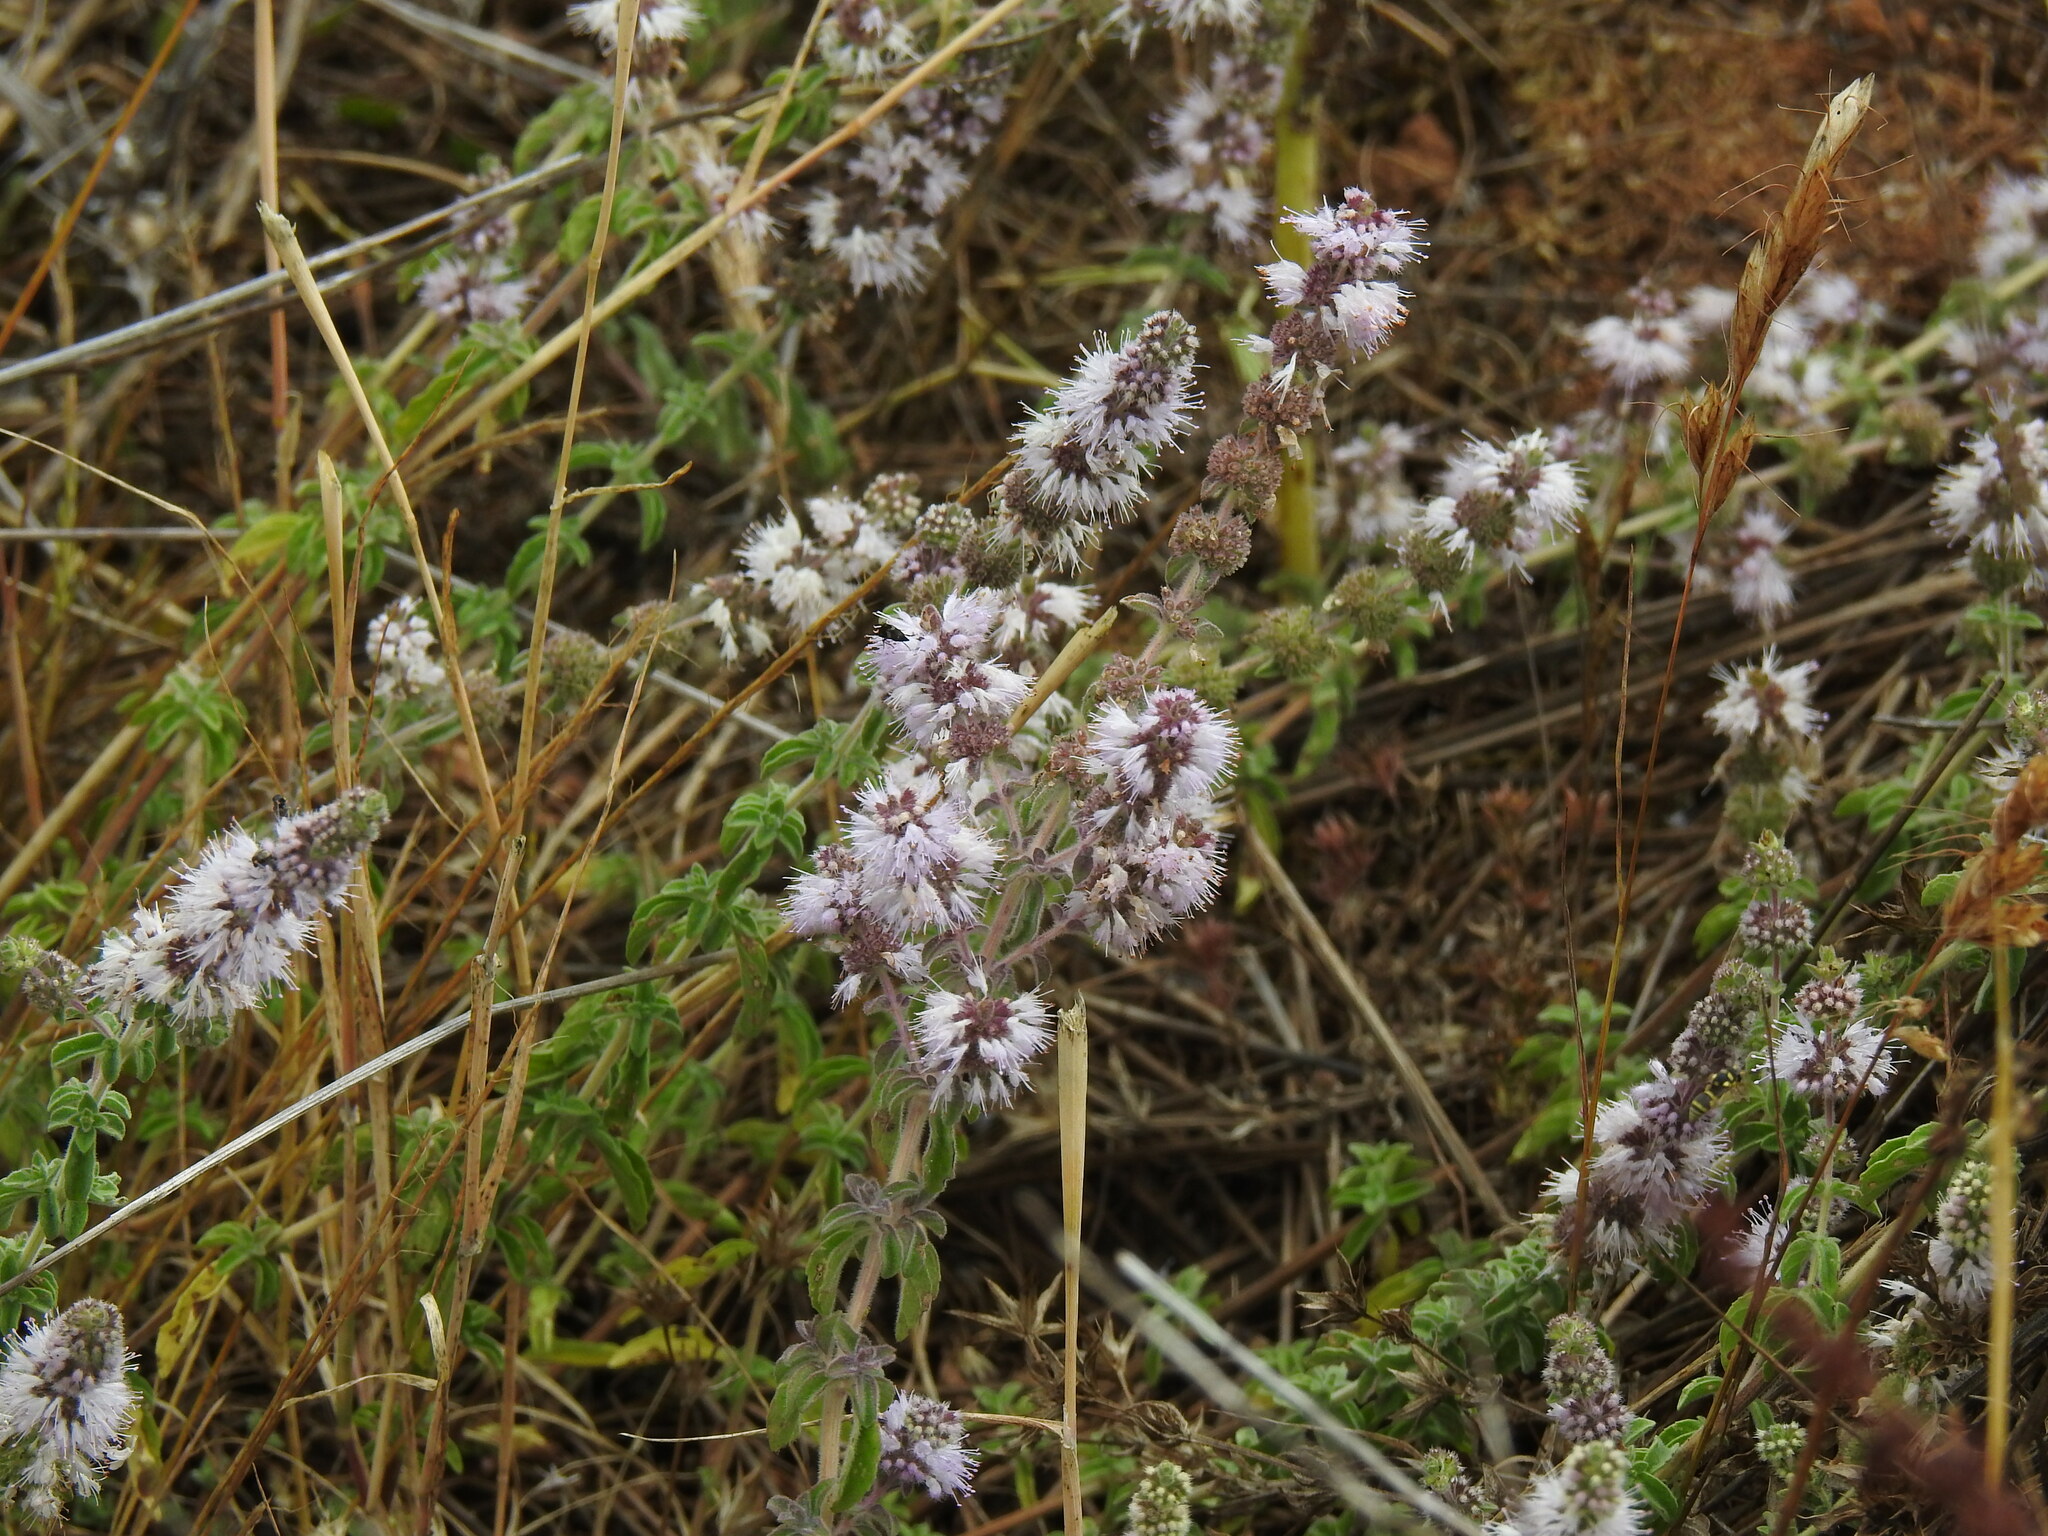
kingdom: Plantae
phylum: Tracheophyta
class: Magnoliopsida
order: Lamiales
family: Lamiaceae
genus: Mentha
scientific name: Mentha pulegium
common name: Pennyroyal
